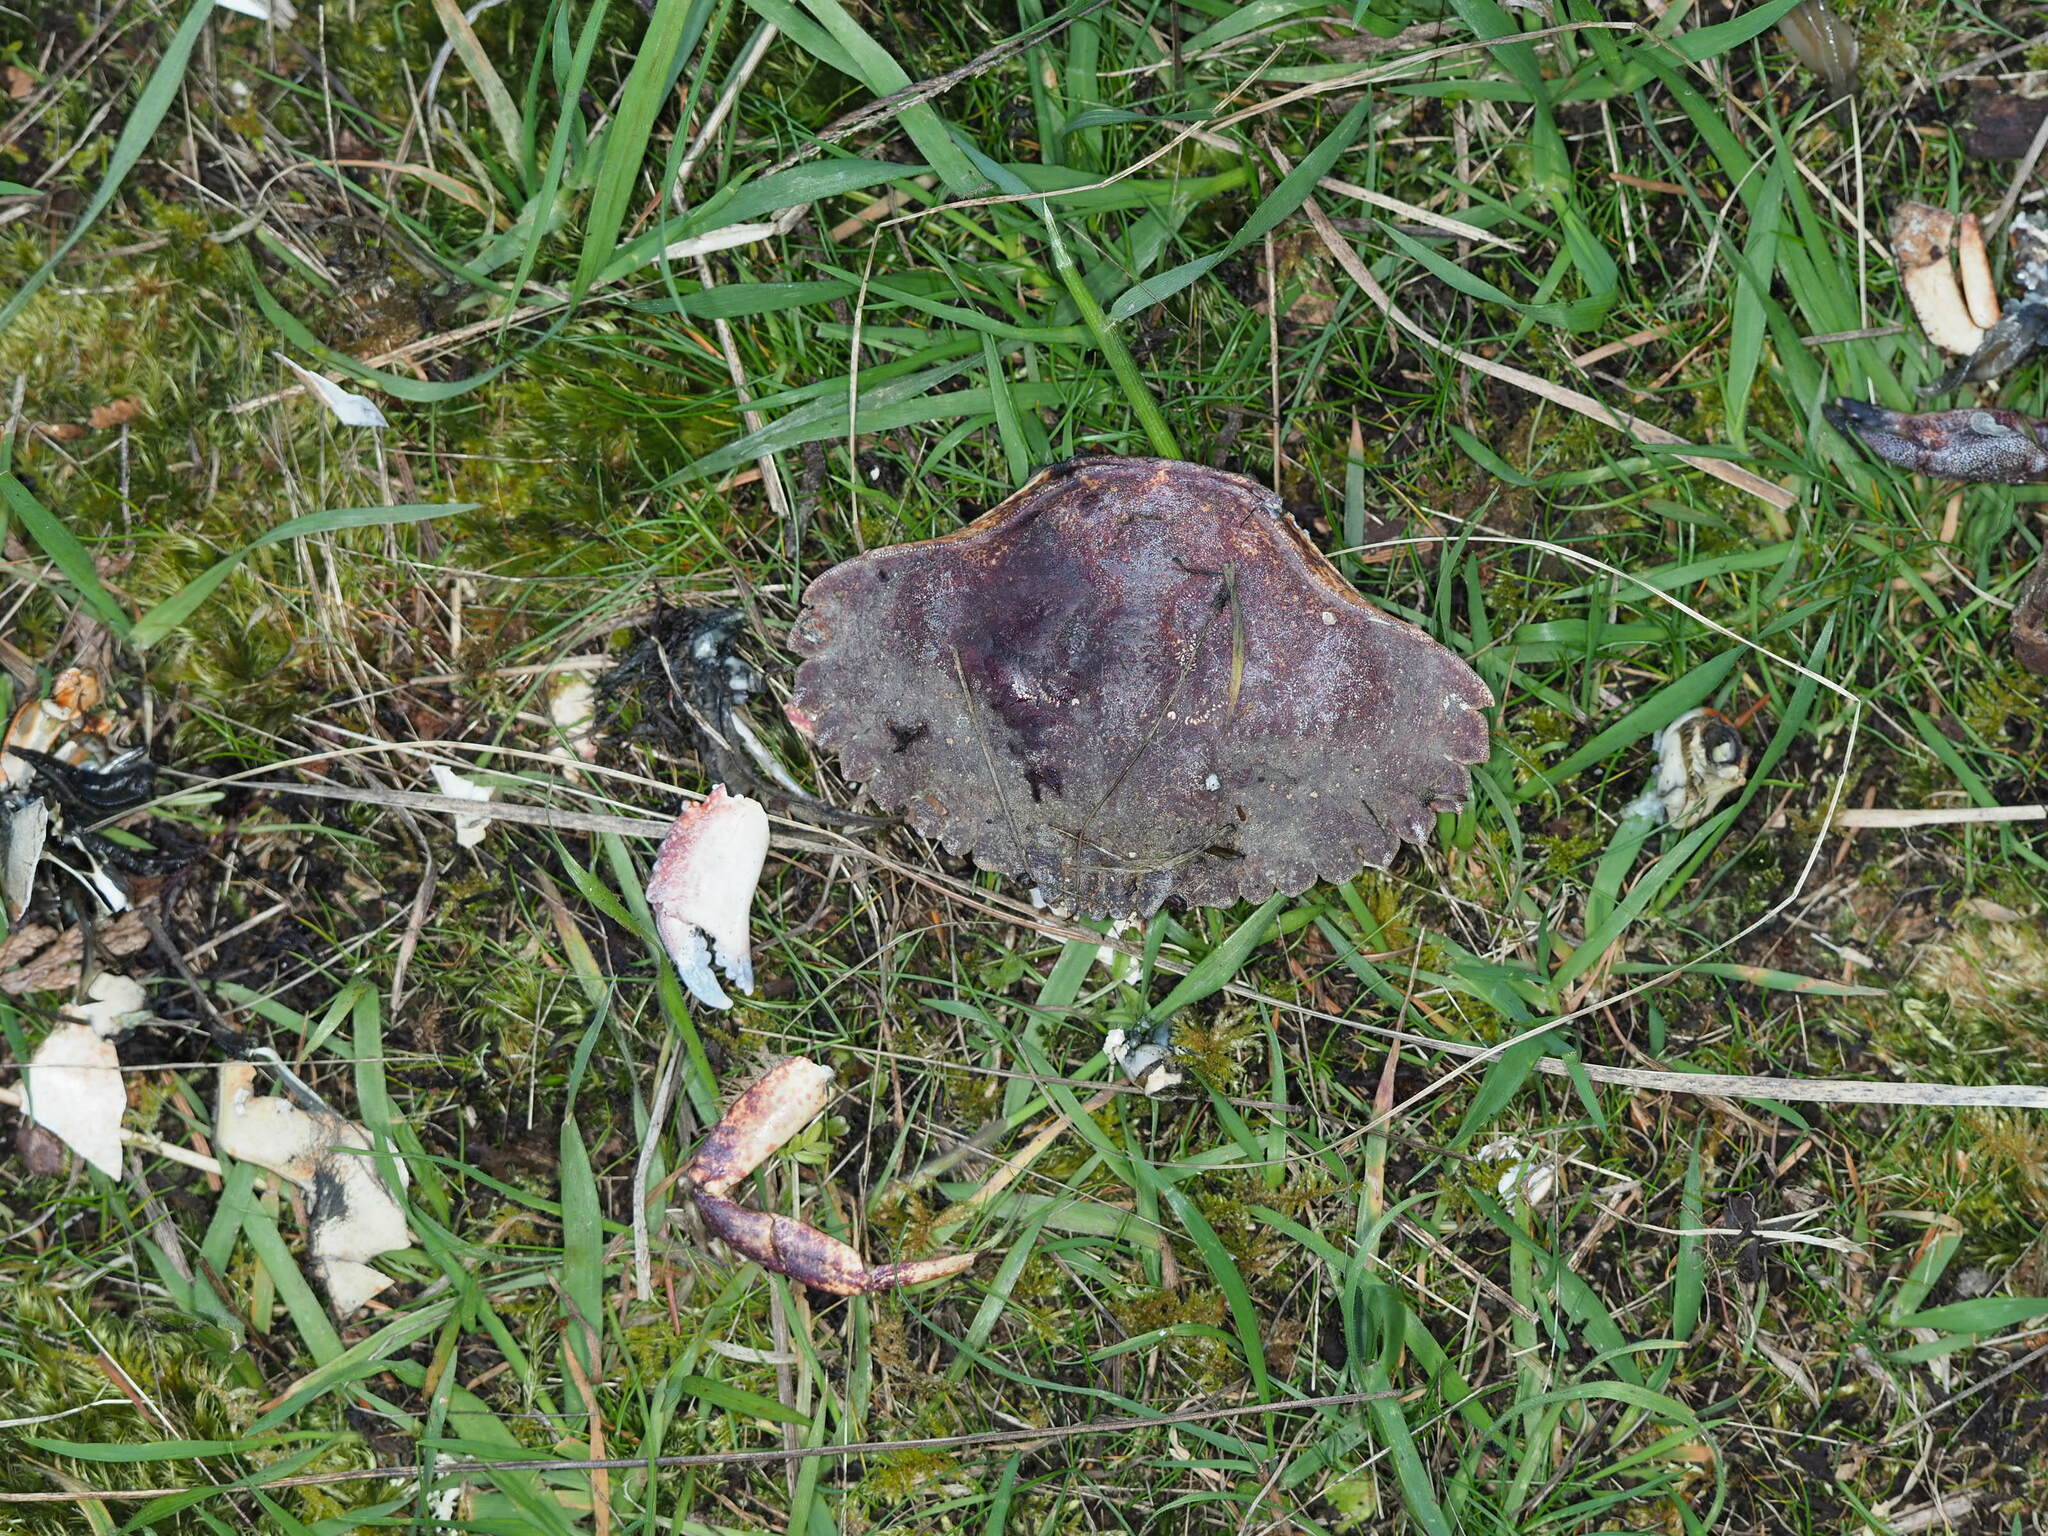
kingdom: Animalia
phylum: Arthropoda
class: Malacostraca
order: Decapoda
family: Cancridae
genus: Cancer
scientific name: Cancer productus
